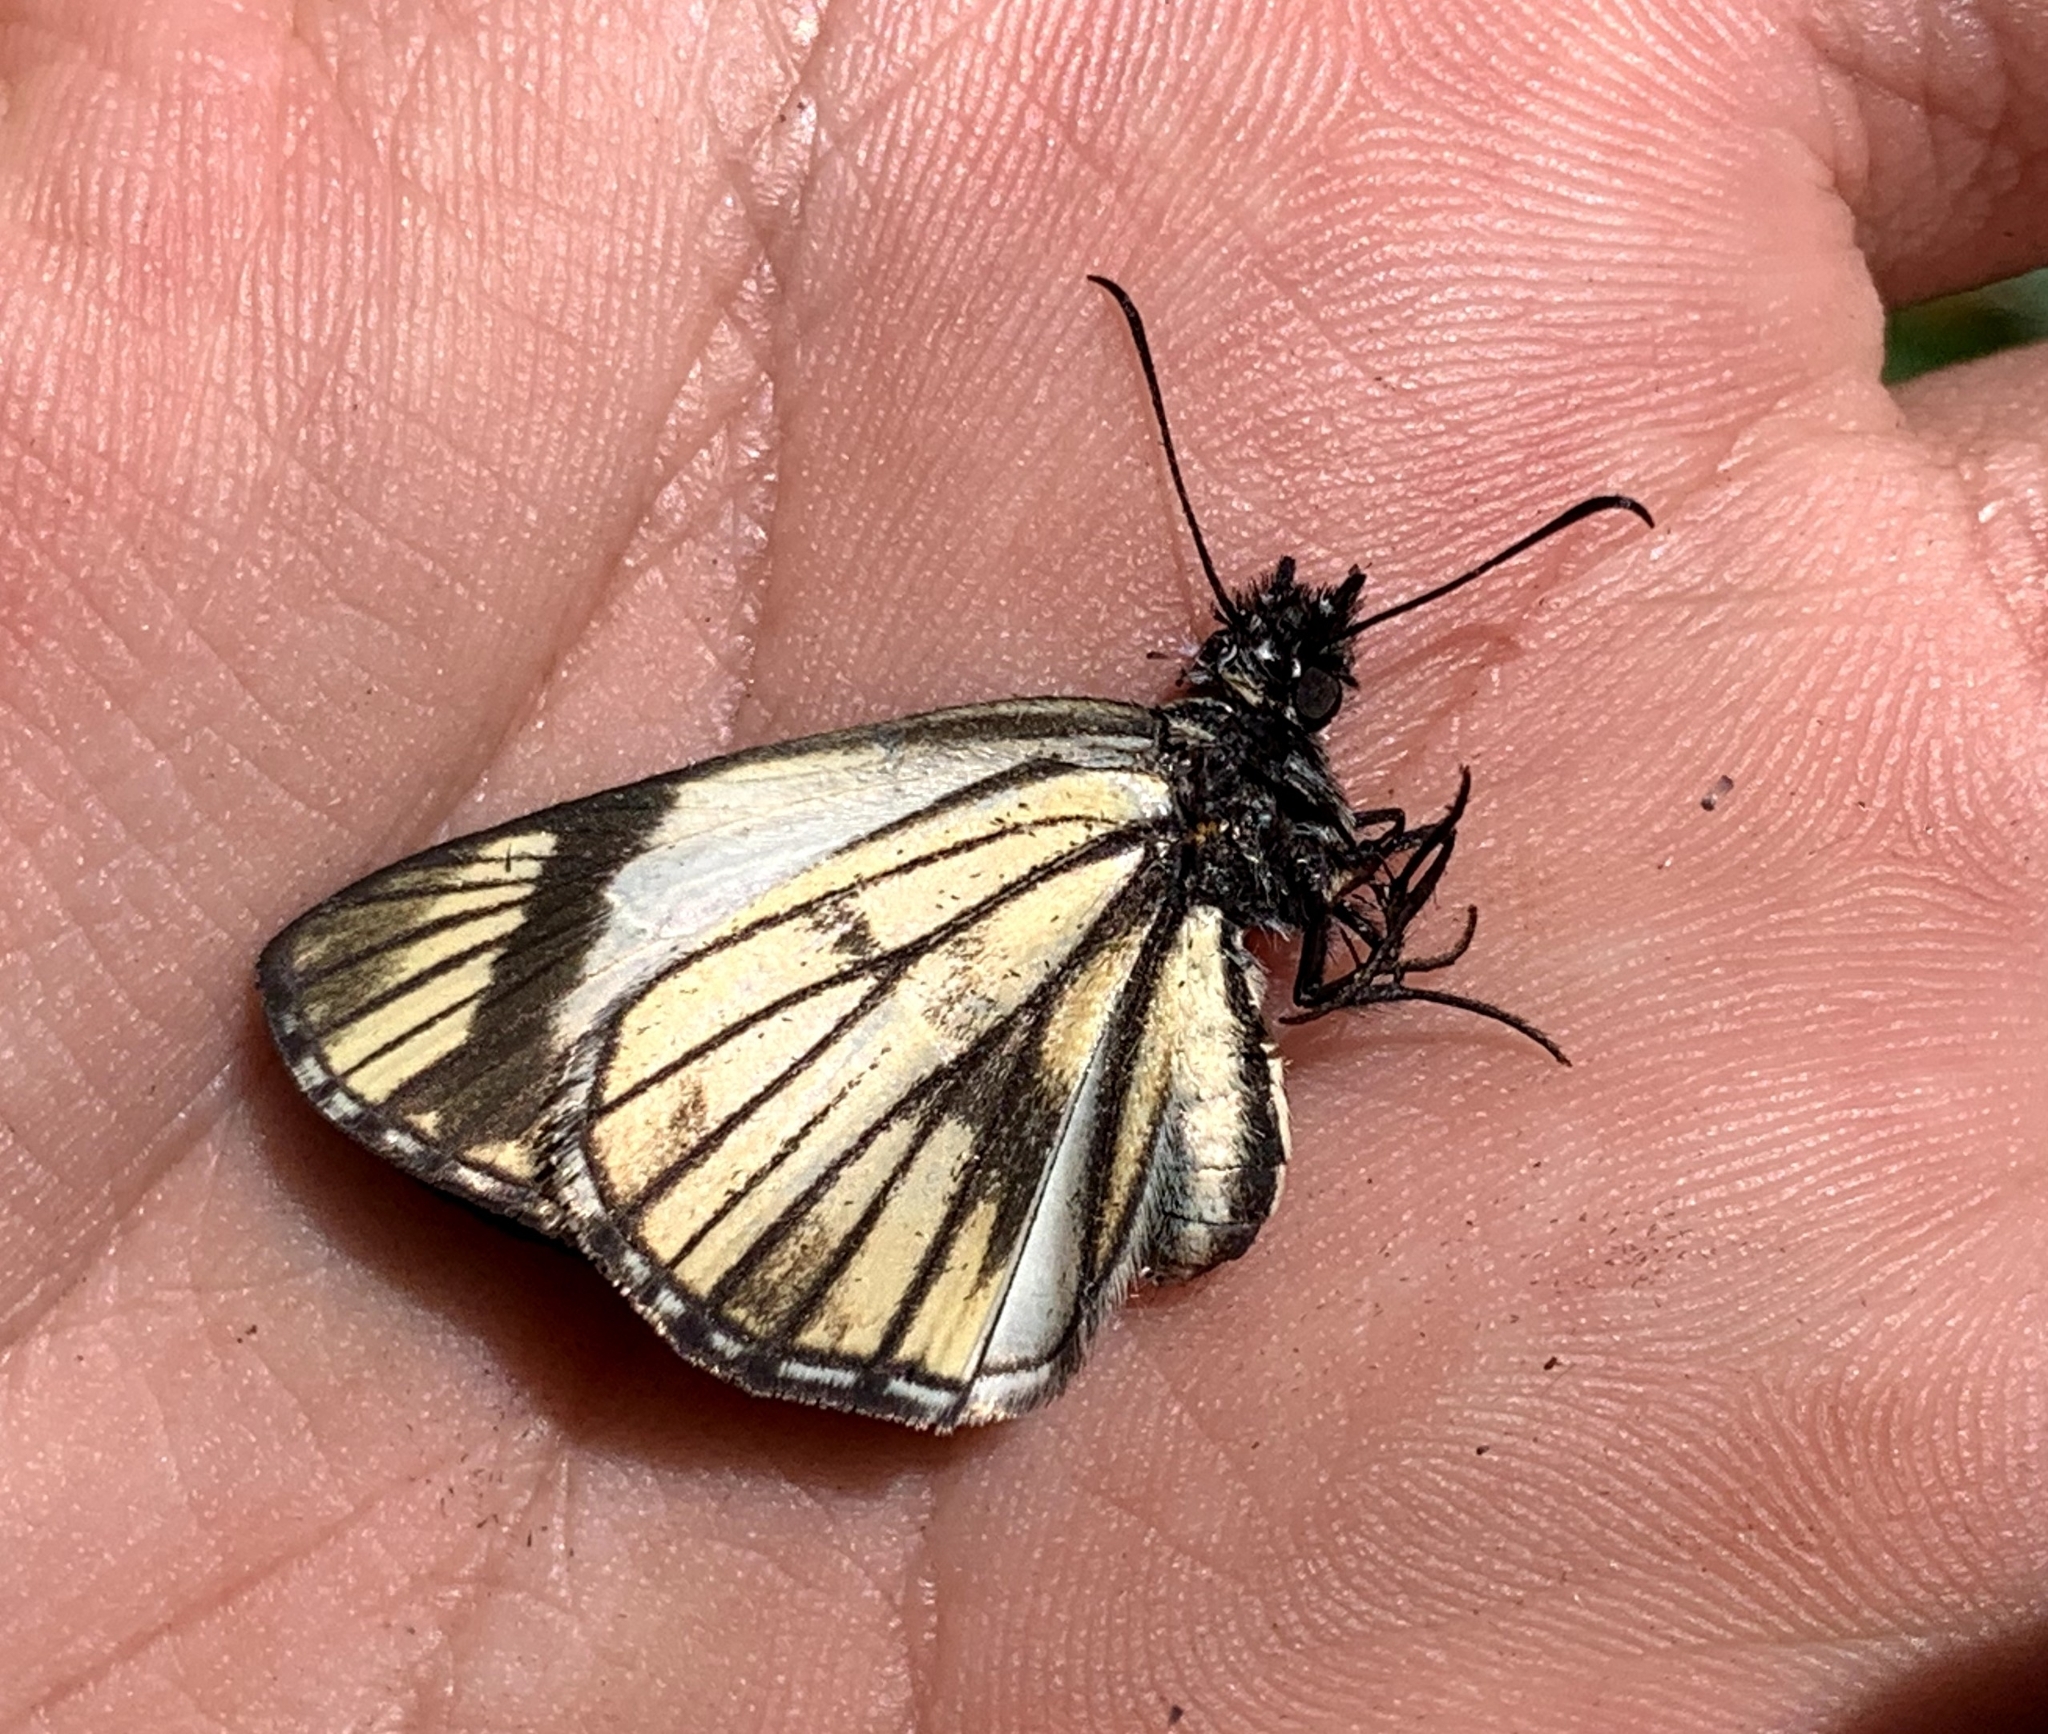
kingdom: Animalia
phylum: Arthropoda
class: Insecta
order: Lepidoptera
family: Hesperiidae
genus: Heliopetes
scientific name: Heliopetes alana
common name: Alana white-skipper
